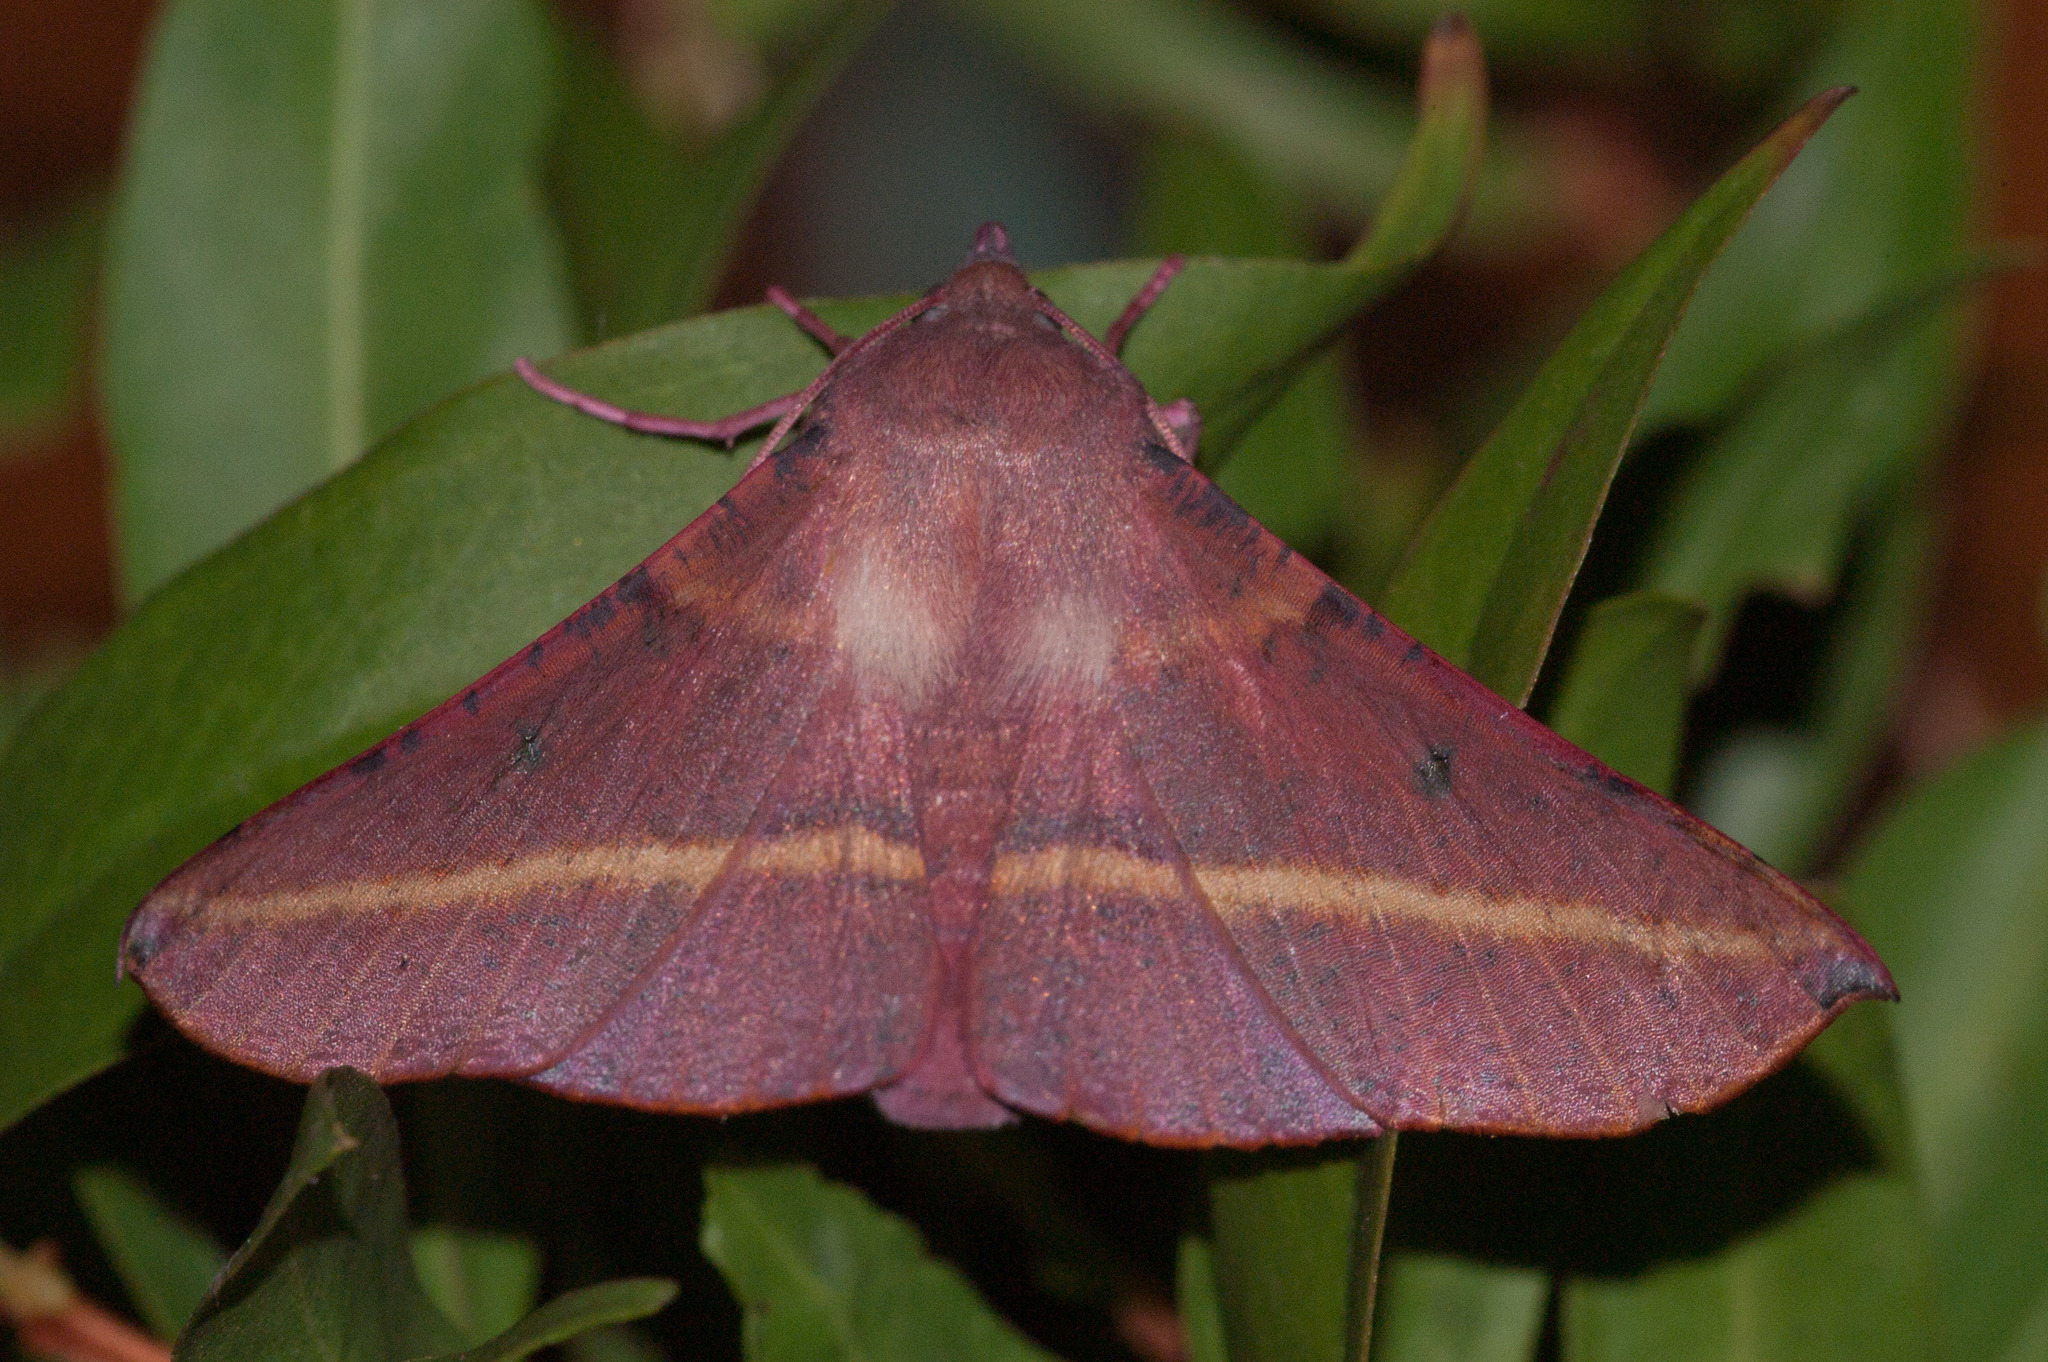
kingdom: Animalia
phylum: Arthropoda
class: Insecta
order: Lepidoptera
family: Geometridae
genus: Oenochroma
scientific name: Oenochroma vinaria
